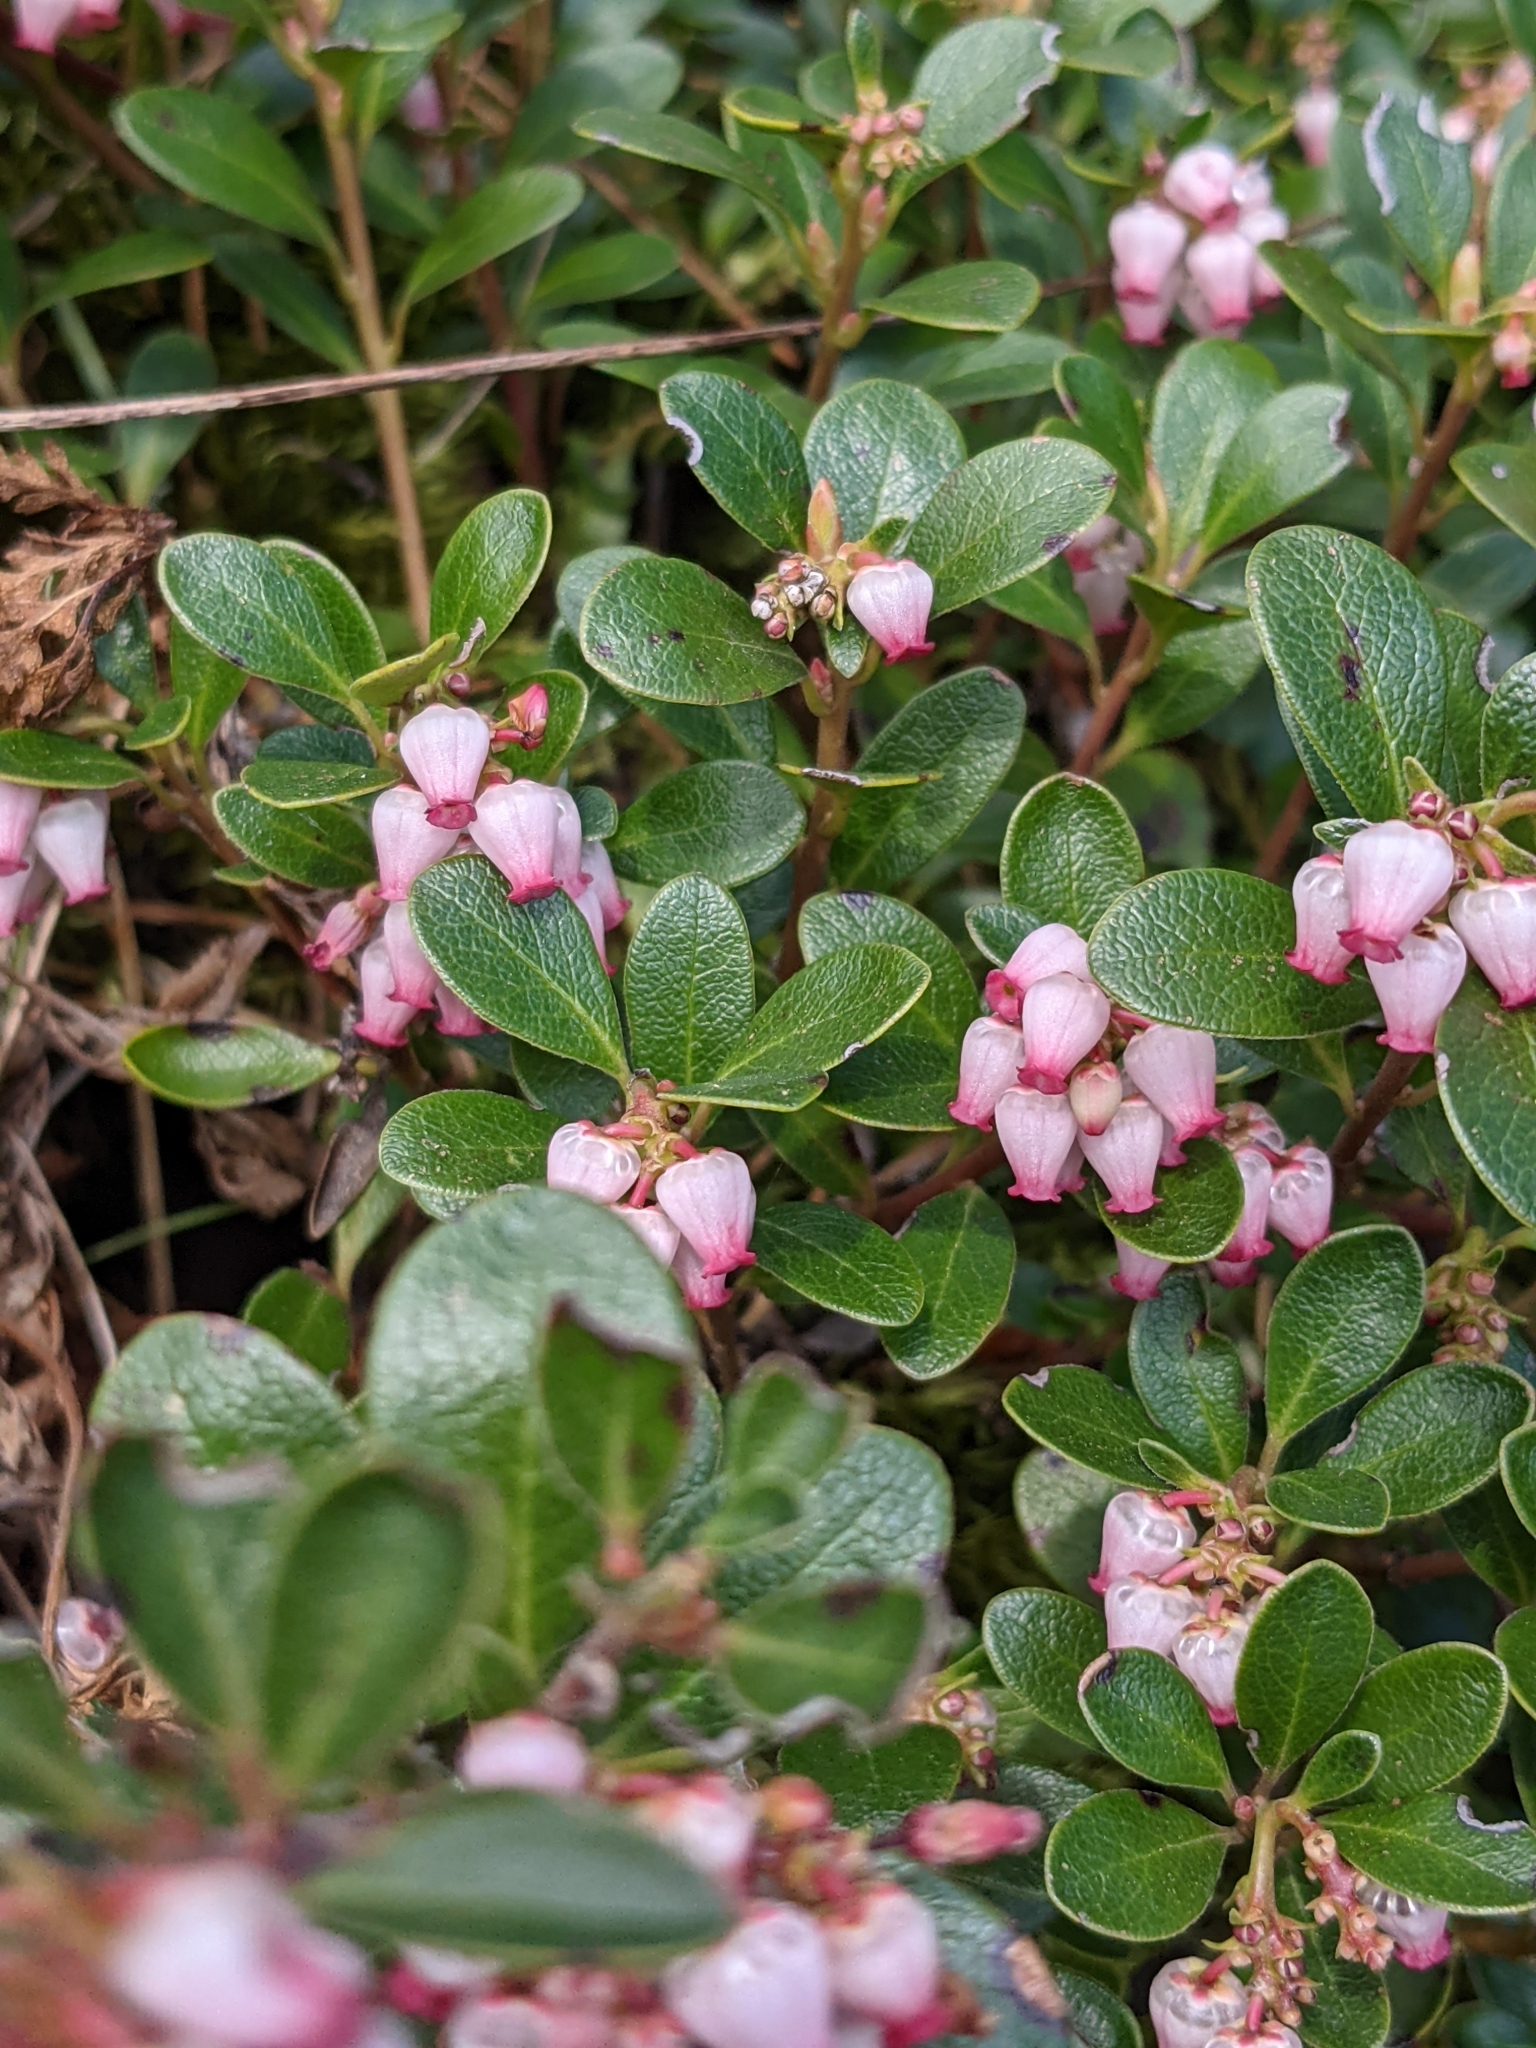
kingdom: Plantae
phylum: Tracheophyta
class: Magnoliopsida
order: Ericales
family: Ericaceae
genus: Arctostaphylos
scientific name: Arctostaphylos uva-ursi
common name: Bearberry
